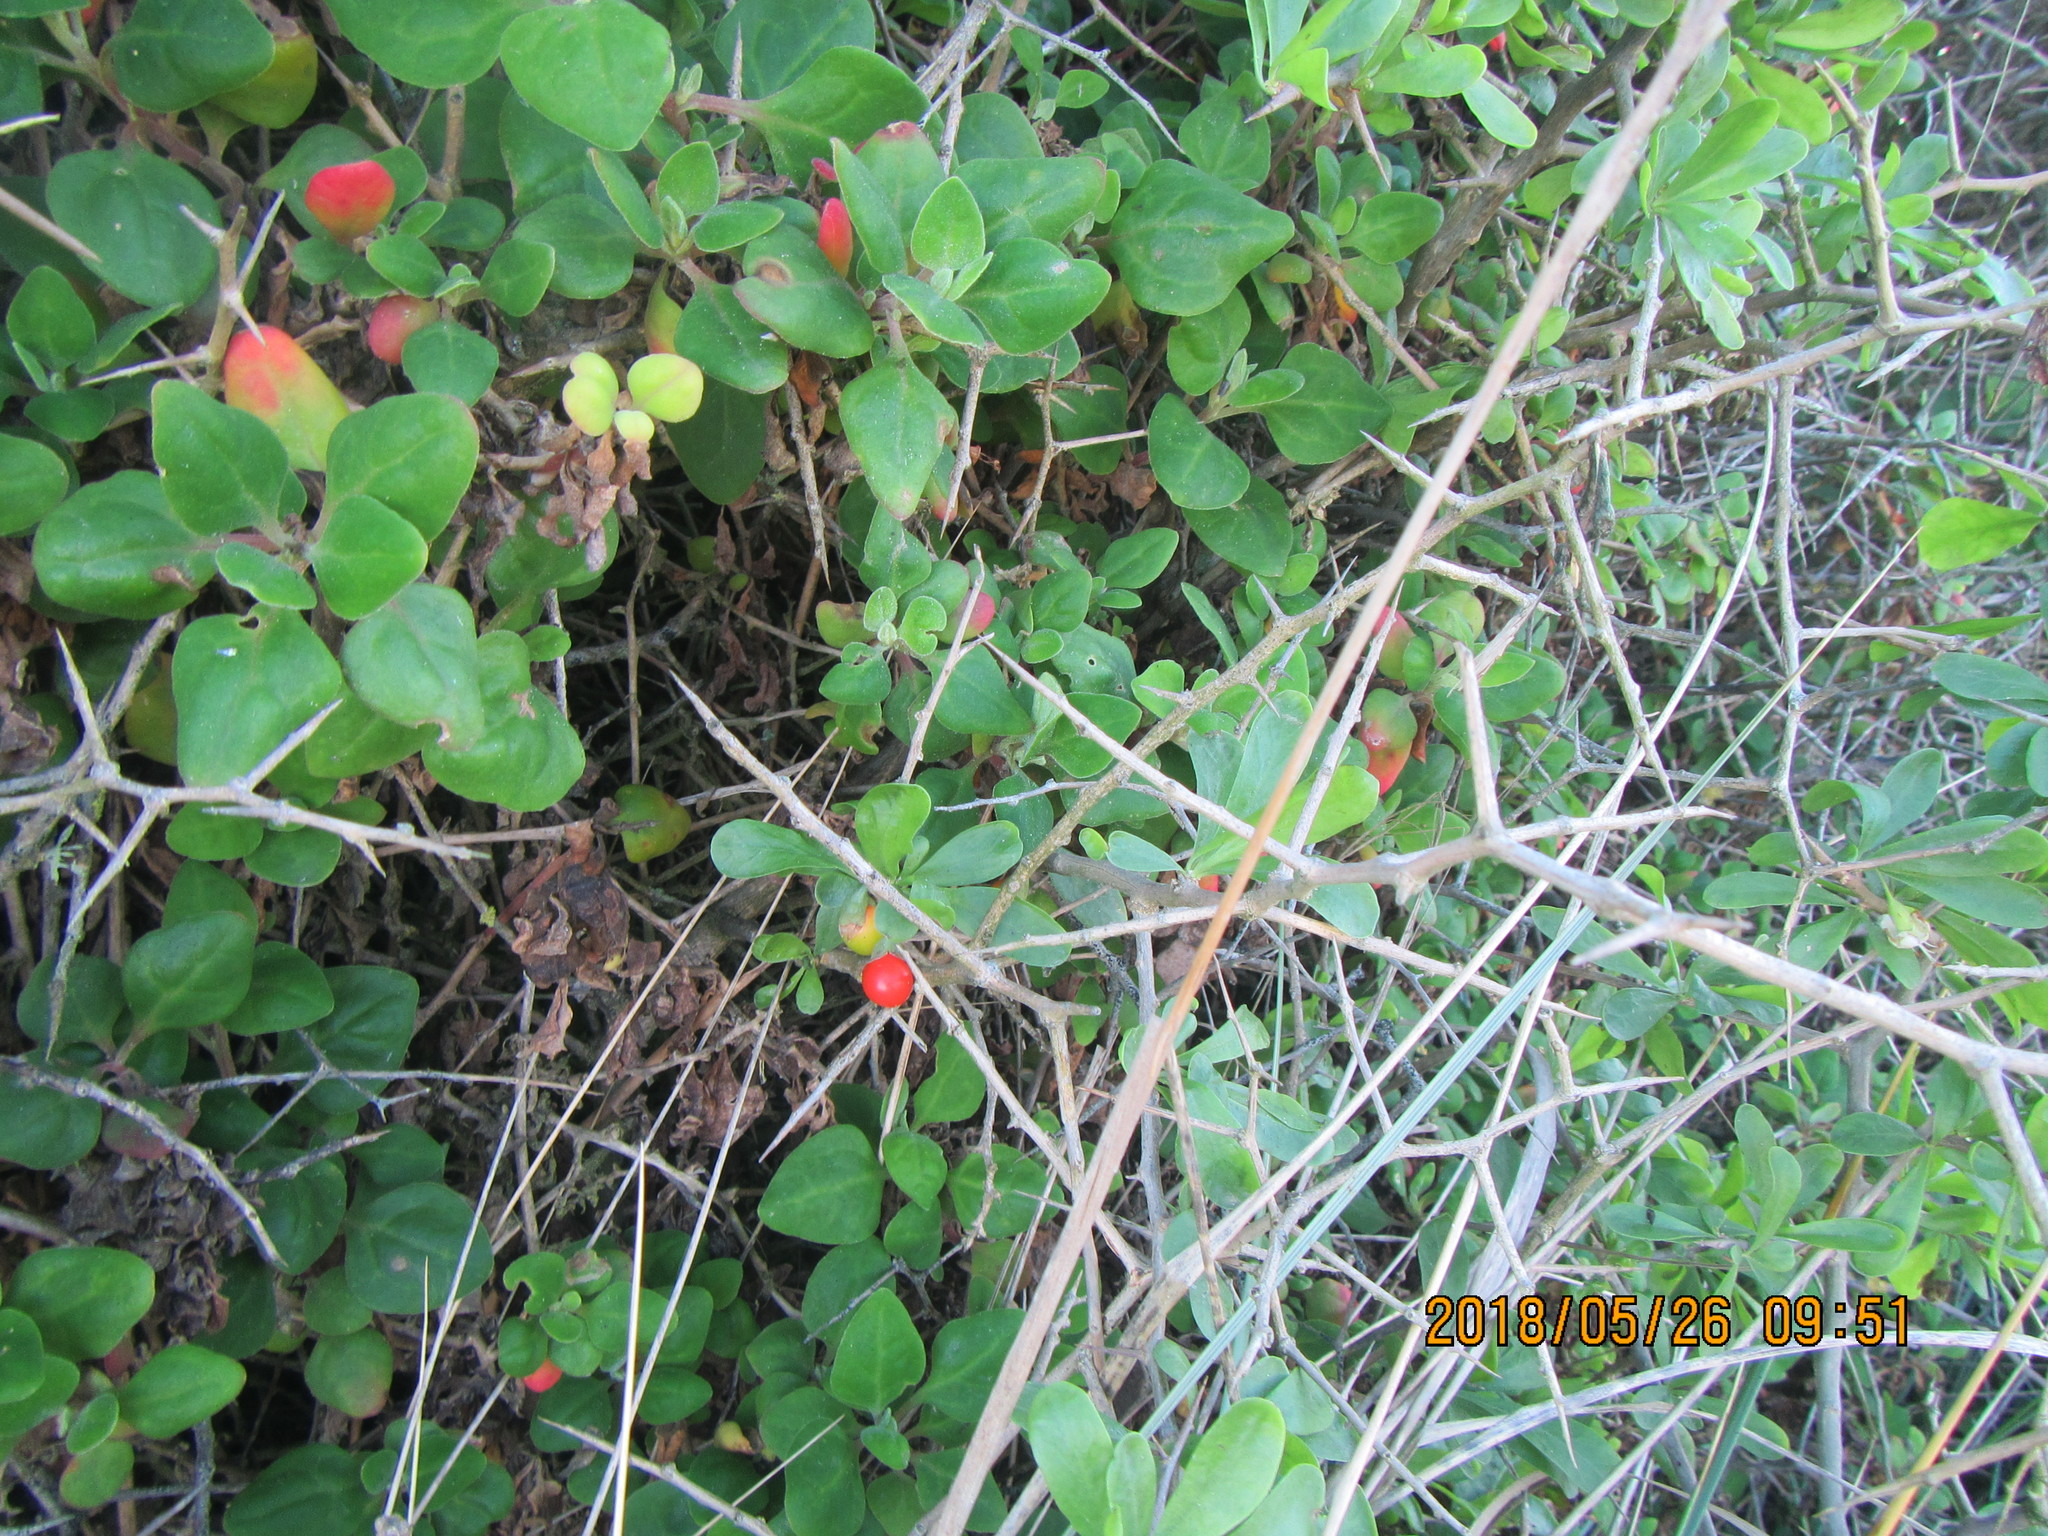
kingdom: Plantae
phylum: Tracheophyta
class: Magnoliopsida
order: Solanales
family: Solanaceae
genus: Lycium
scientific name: Lycium ferocissimum
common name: African boxthorn
